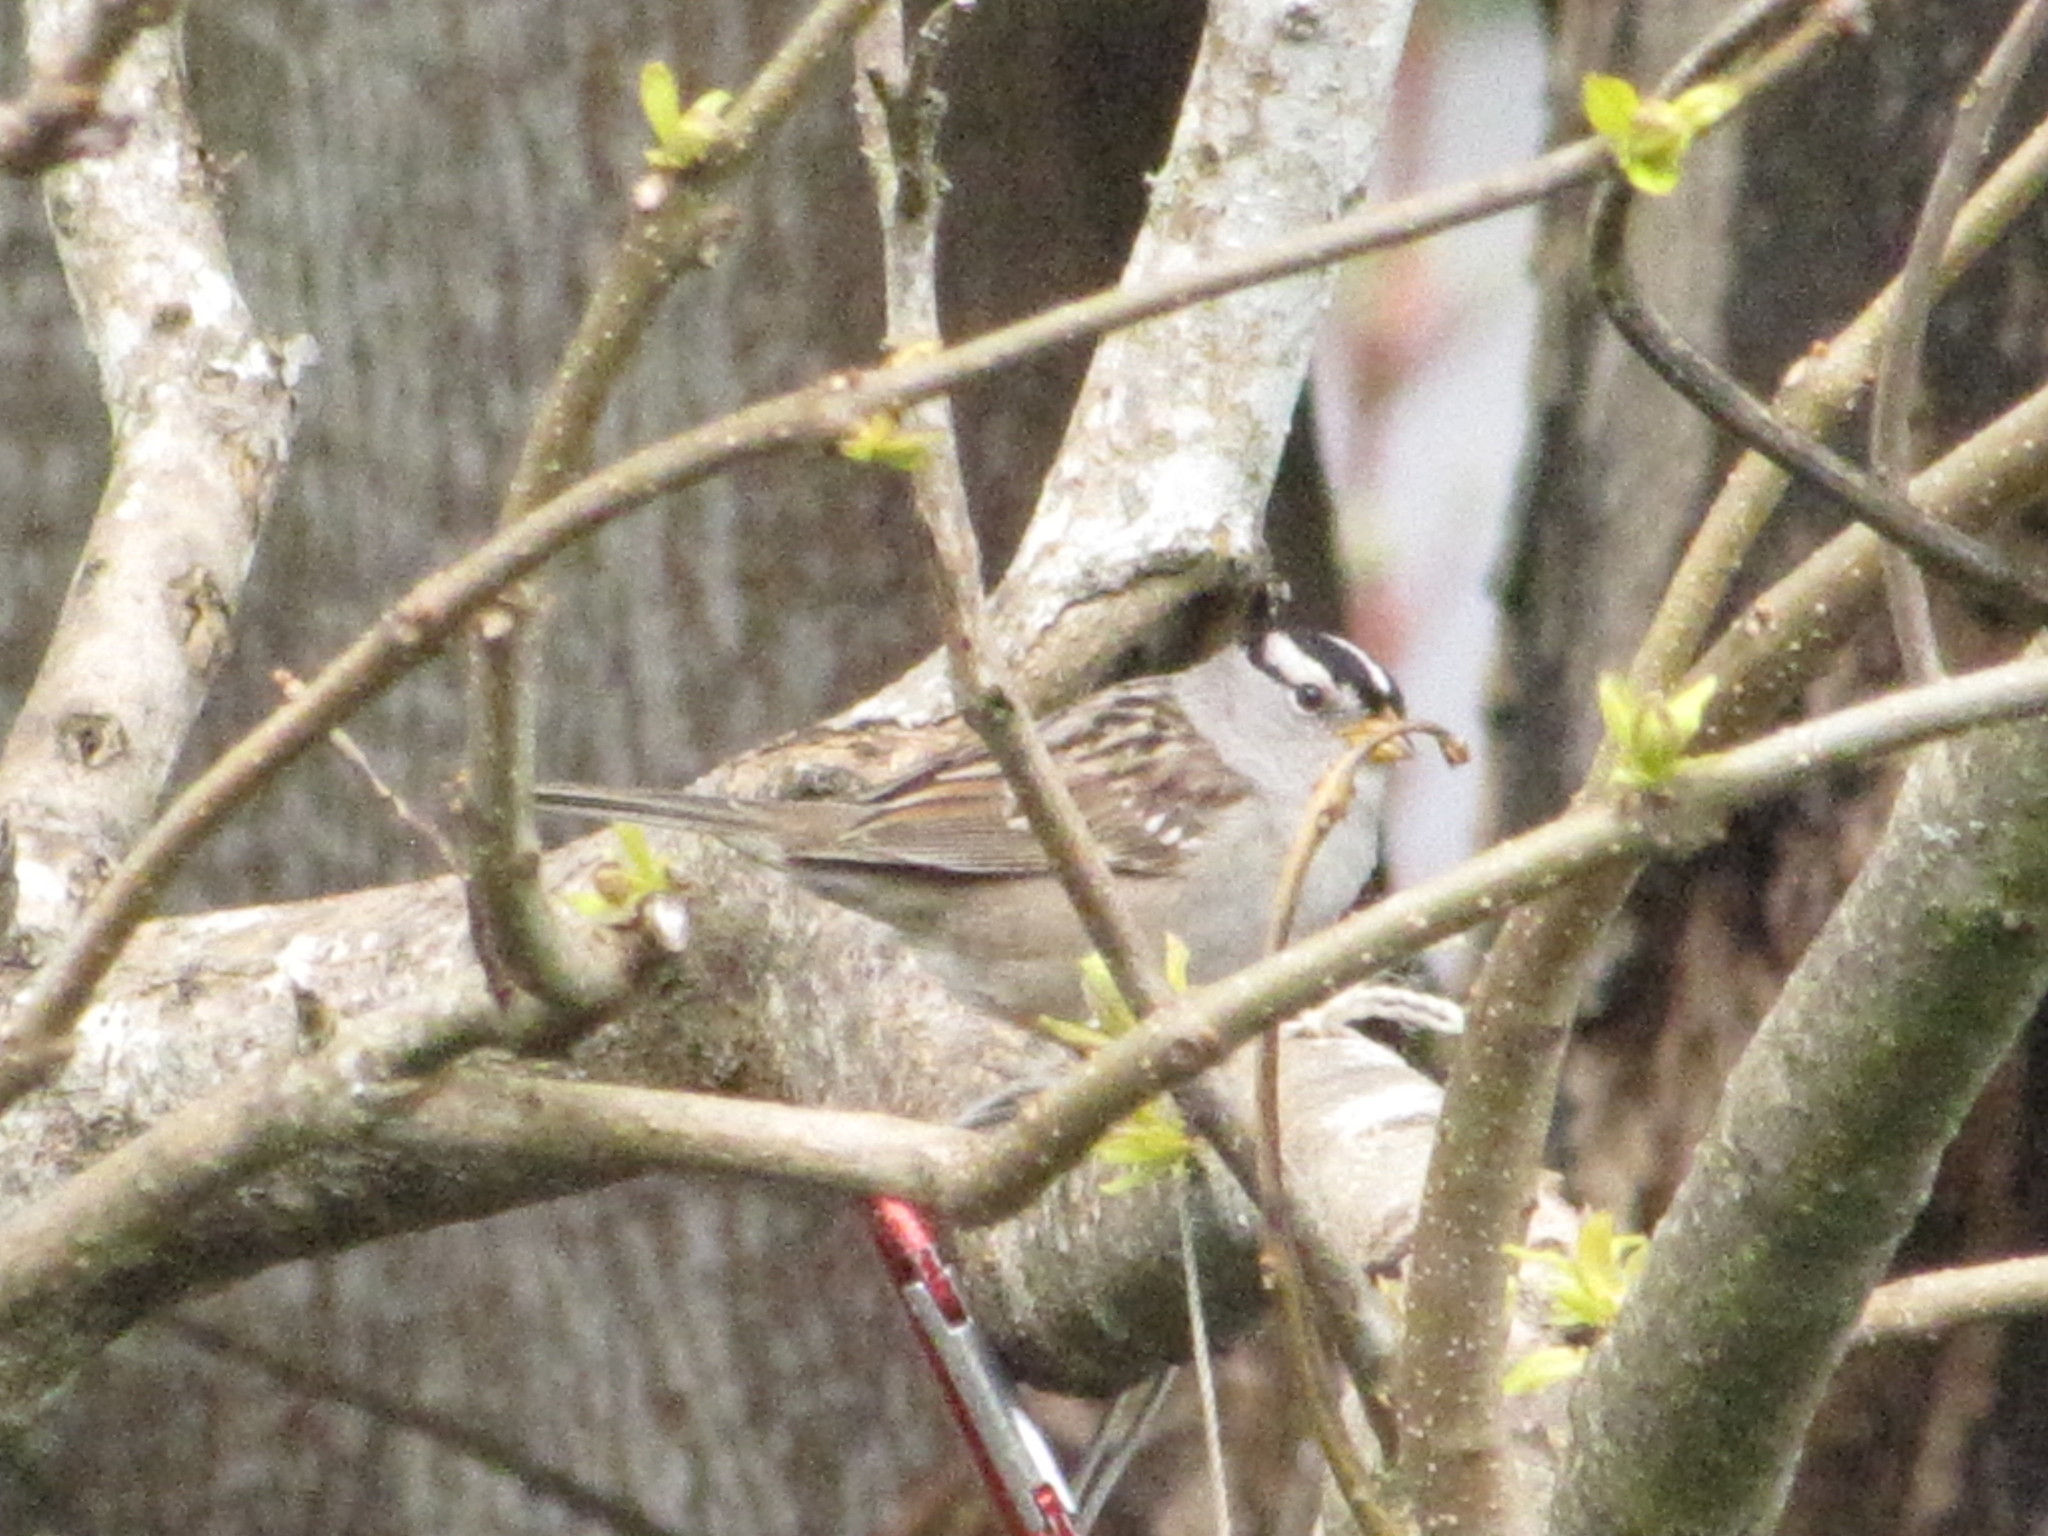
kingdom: Animalia
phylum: Chordata
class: Aves
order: Passeriformes
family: Passerellidae
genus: Zonotrichia
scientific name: Zonotrichia leucophrys
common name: White-crowned sparrow
